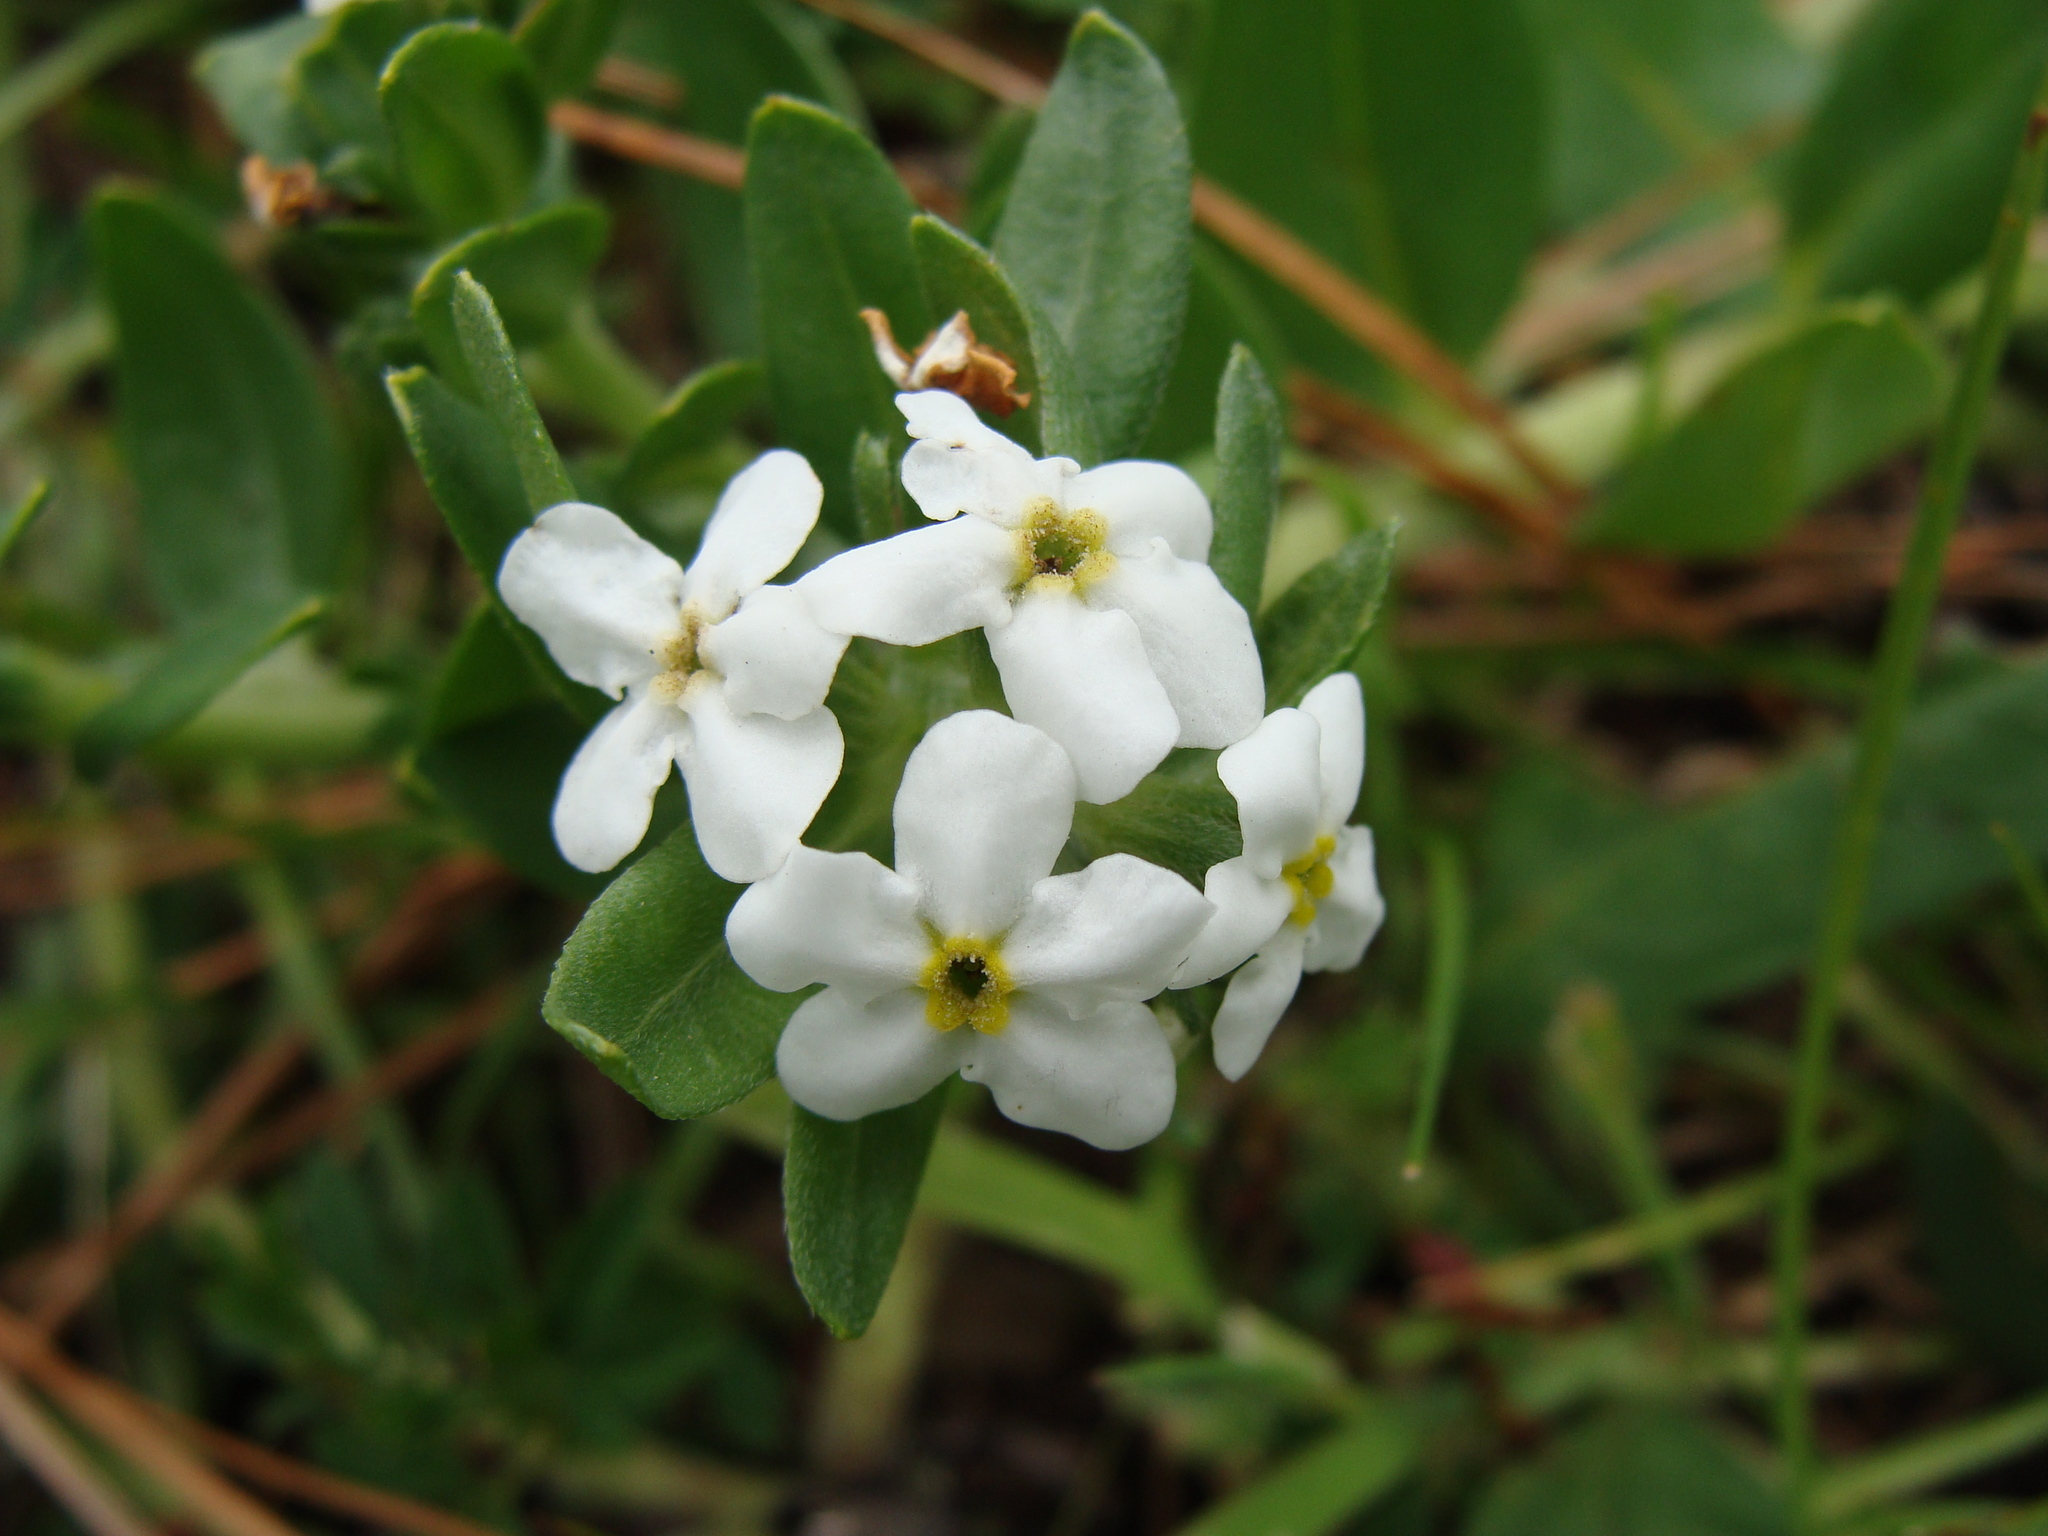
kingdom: Plantae
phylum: Tracheophyta
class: Magnoliopsida
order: Boraginales
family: Boraginaceae
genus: Lithospermum
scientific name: Lithospermum distichum
